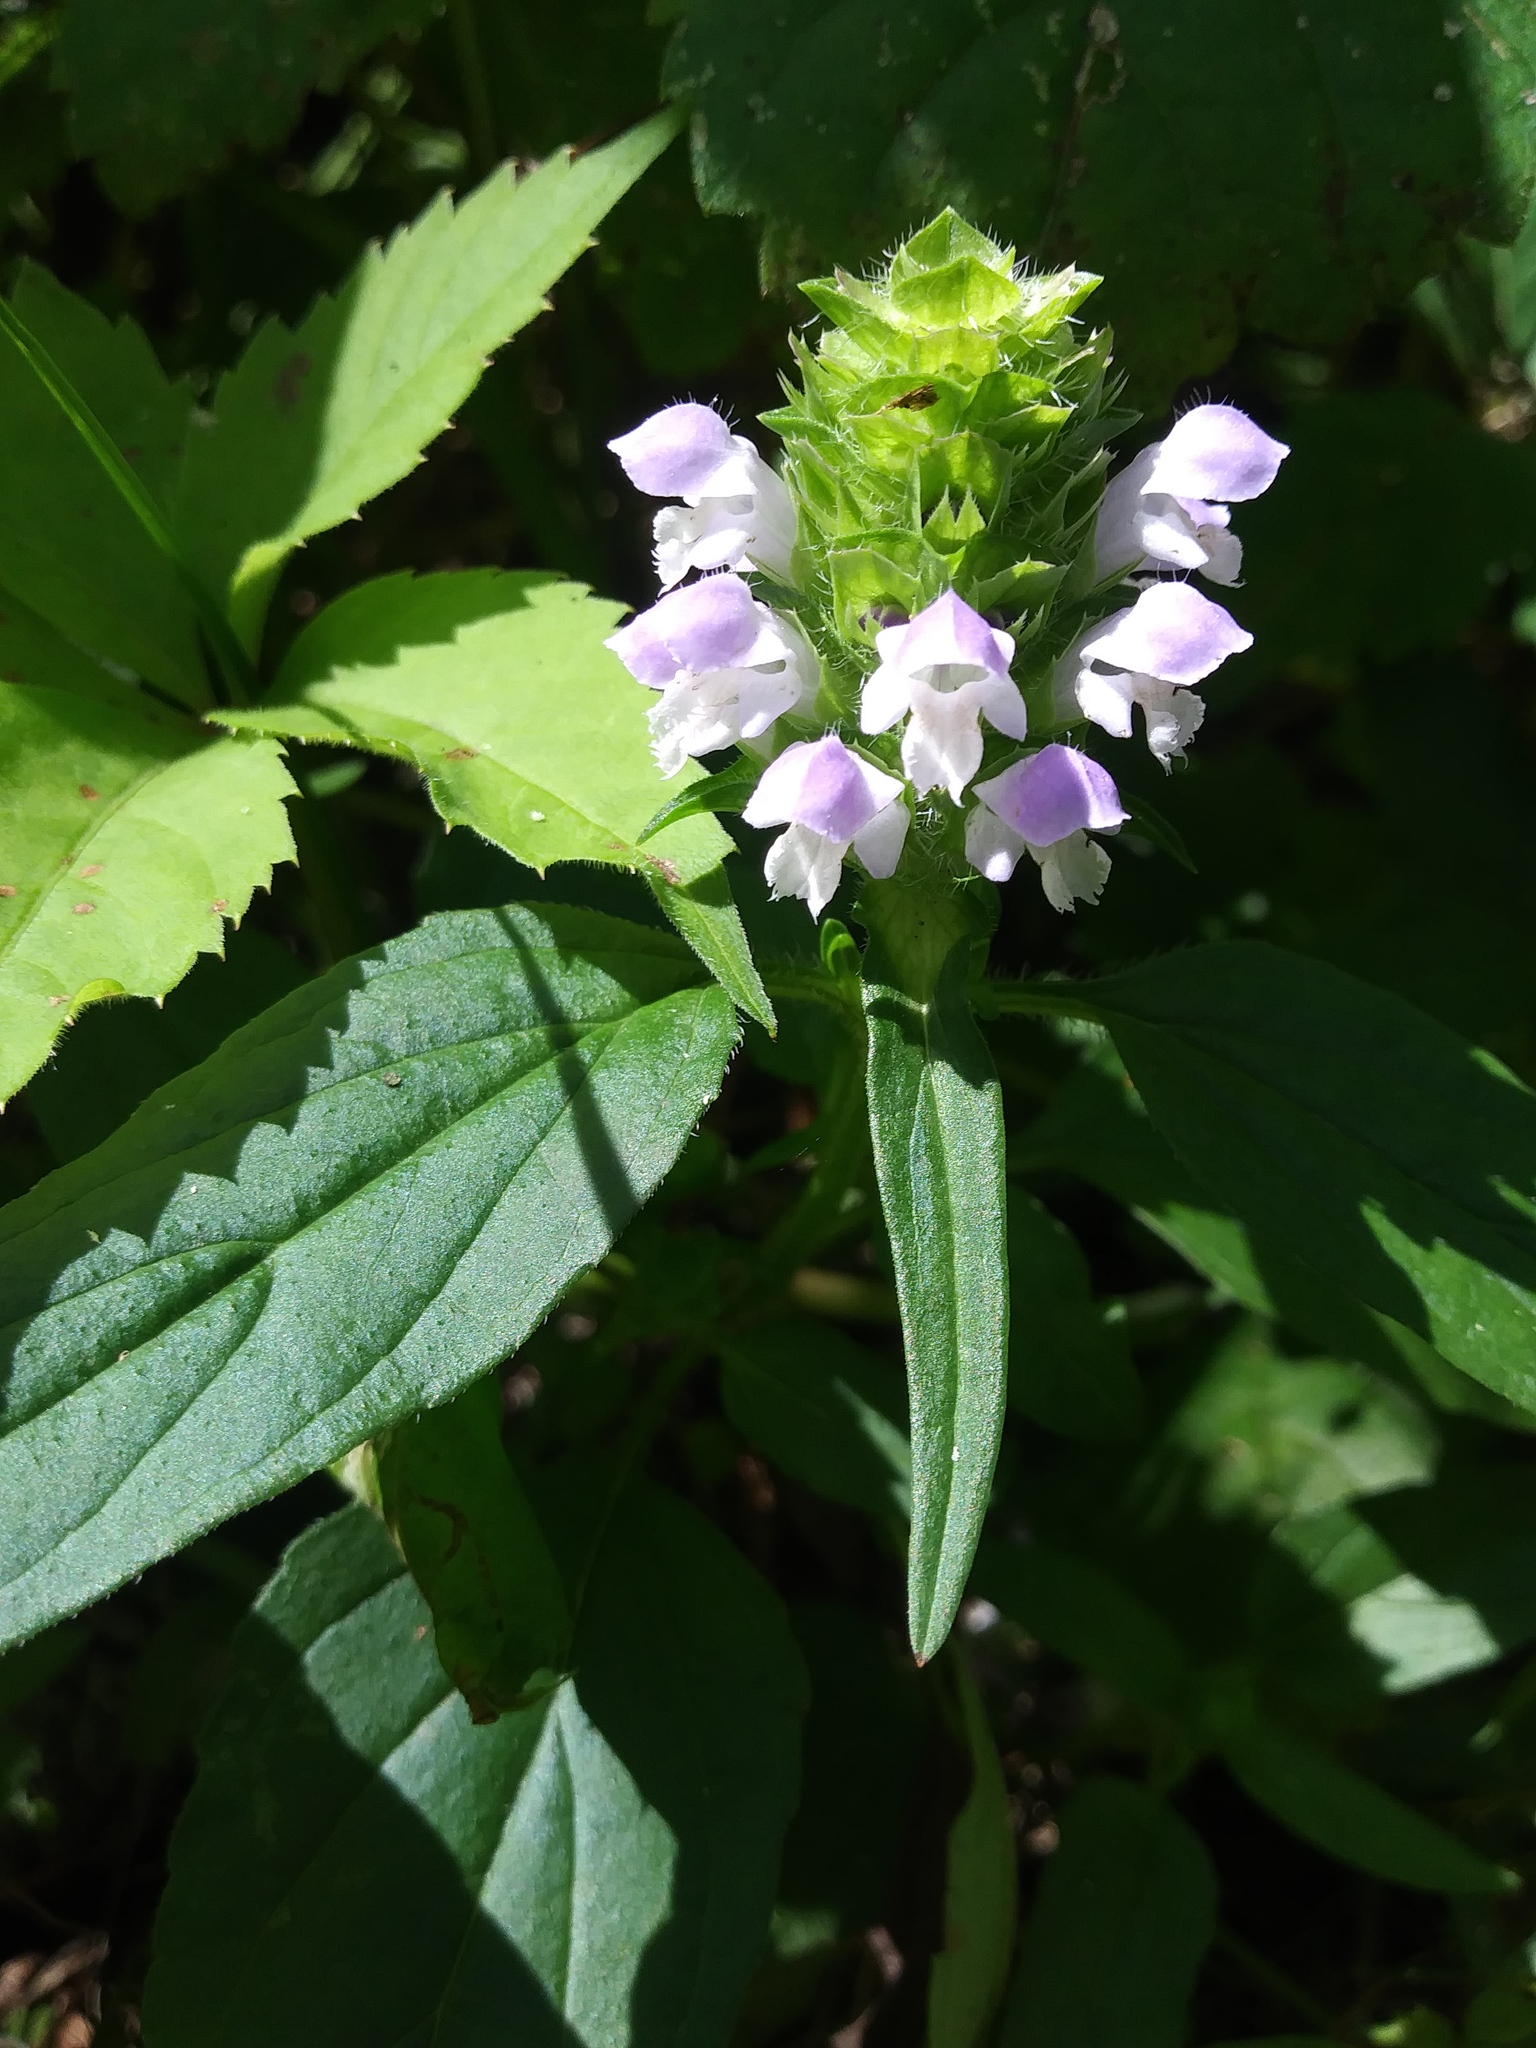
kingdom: Plantae
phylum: Tracheophyta
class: Magnoliopsida
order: Lamiales
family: Lamiaceae
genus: Prunella
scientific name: Prunella vulgaris
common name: Heal-all
